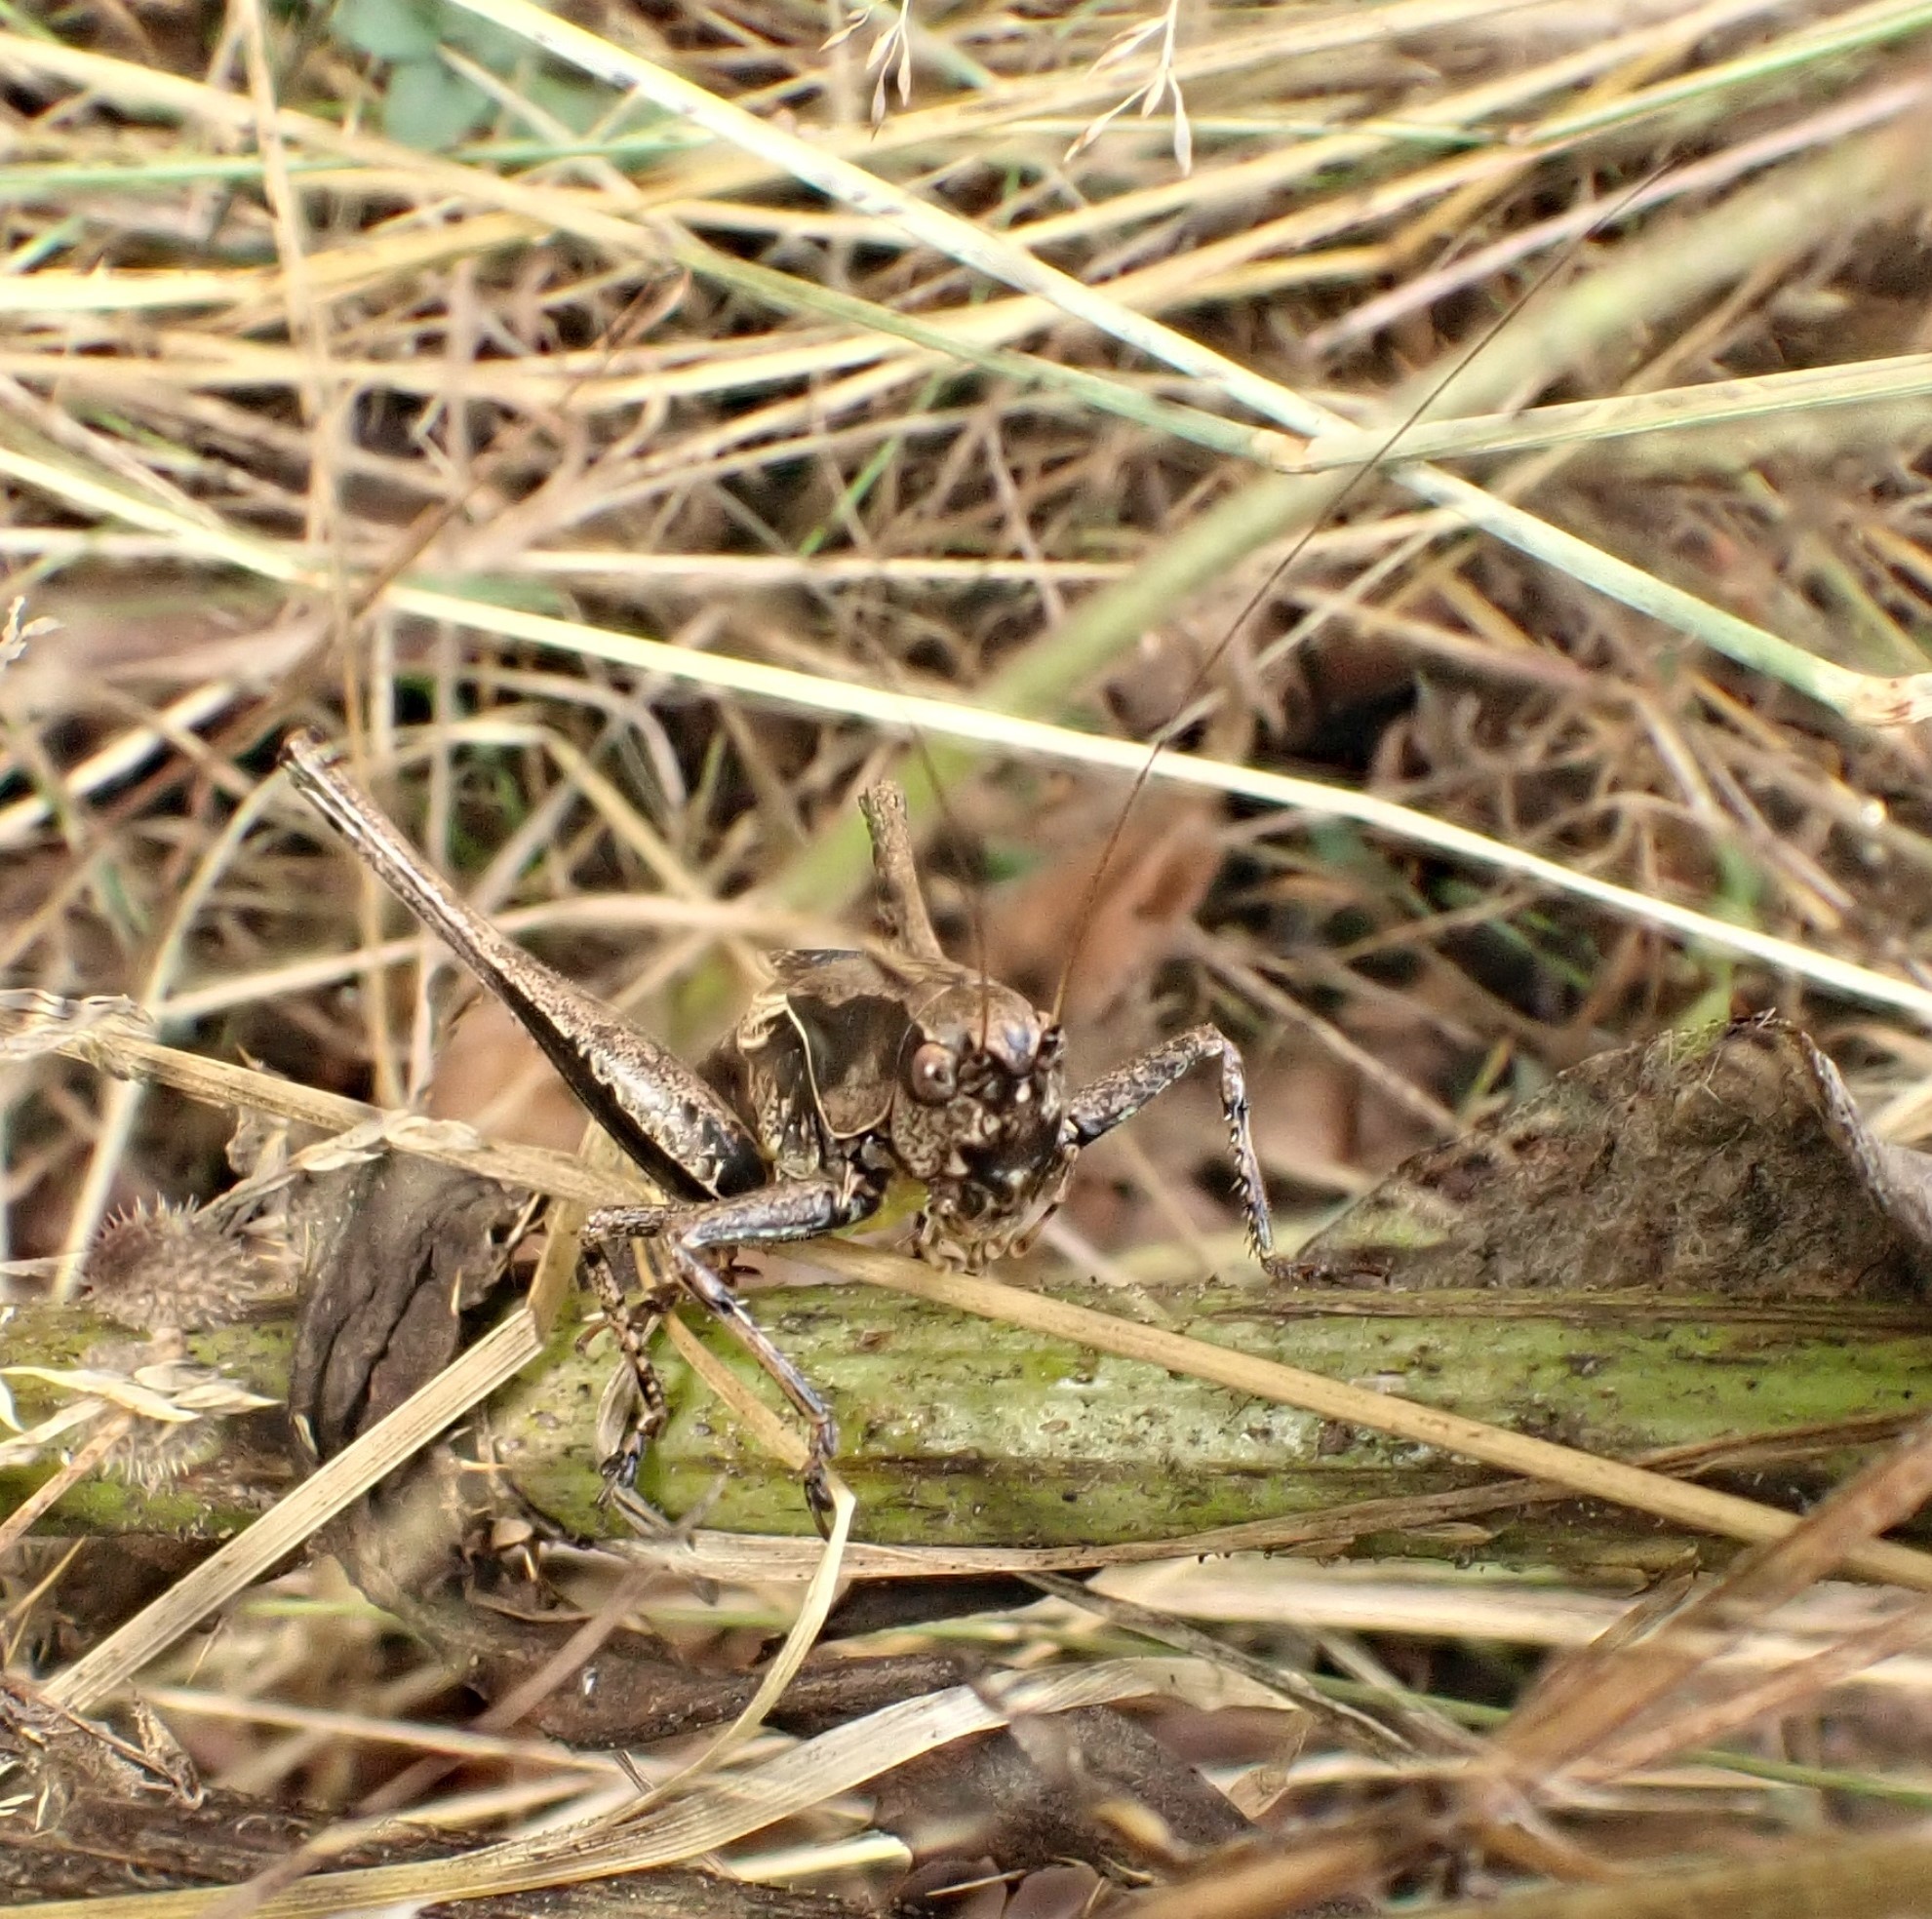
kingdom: Animalia
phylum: Arthropoda
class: Insecta
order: Orthoptera
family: Tettigoniidae
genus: Pholidoptera
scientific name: Pholidoptera griseoaptera
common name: Dark bush-cricket
